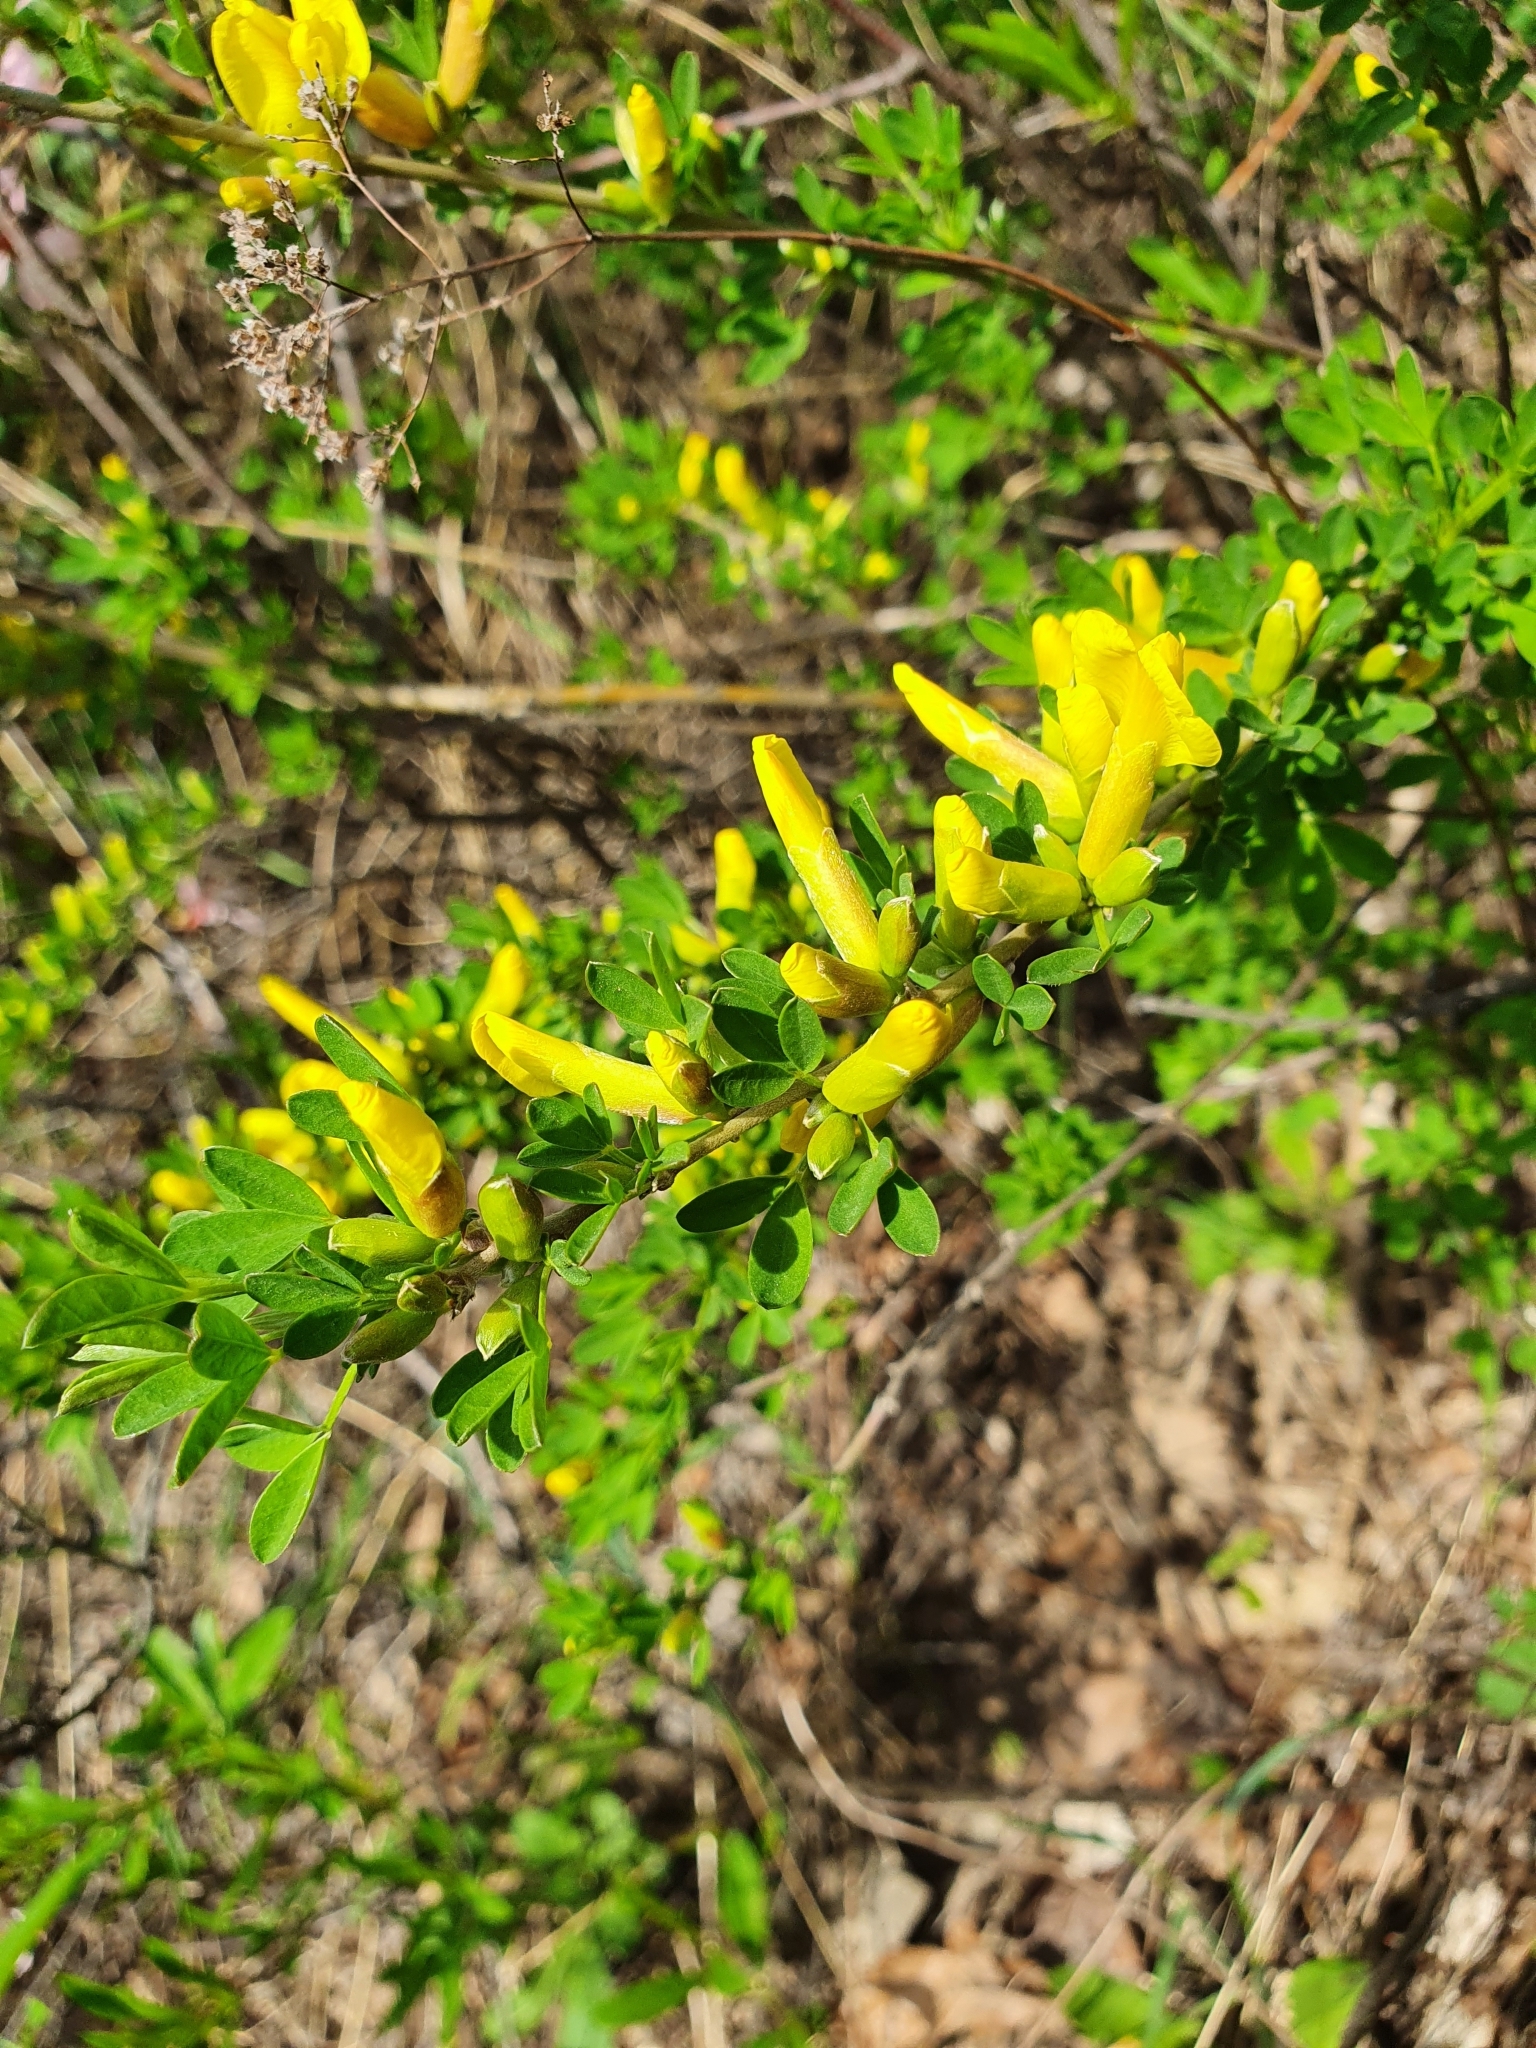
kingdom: Plantae
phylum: Tracheophyta
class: Magnoliopsida
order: Fabales
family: Fabaceae
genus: Chamaecytisus
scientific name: Chamaecytisus ruthenicus
